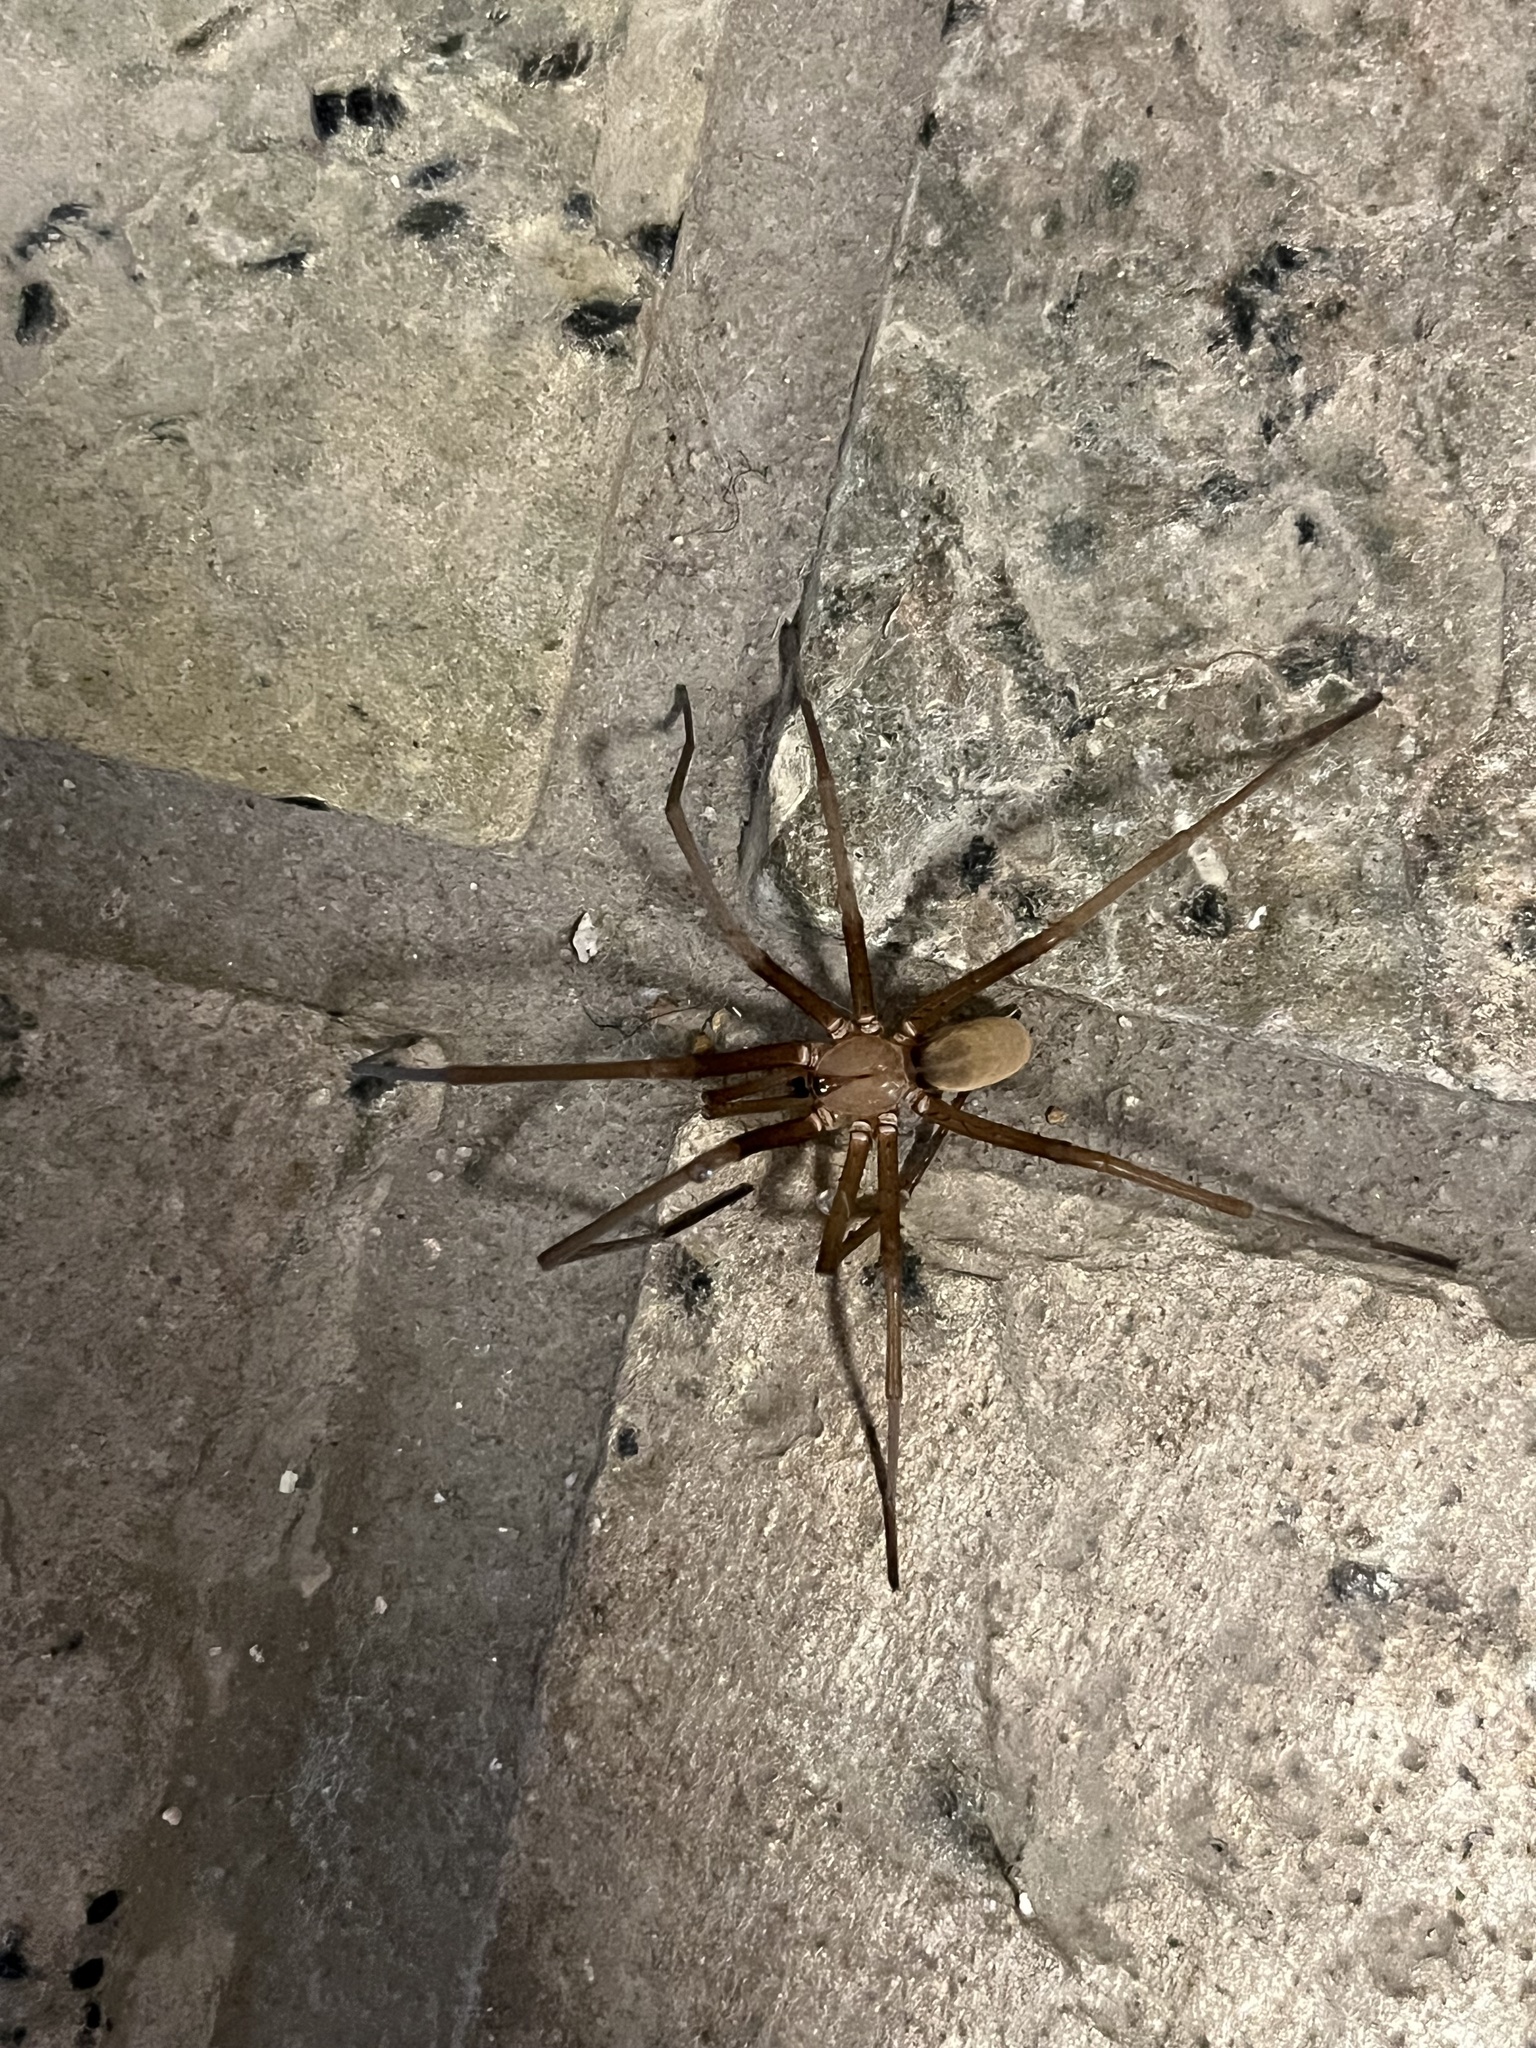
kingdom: Animalia
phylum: Arthropoda
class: Arachnida
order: Araneae
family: Filistatidae
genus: Kukulcania
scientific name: Kukulcania hibernalis
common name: Crevice weaver
